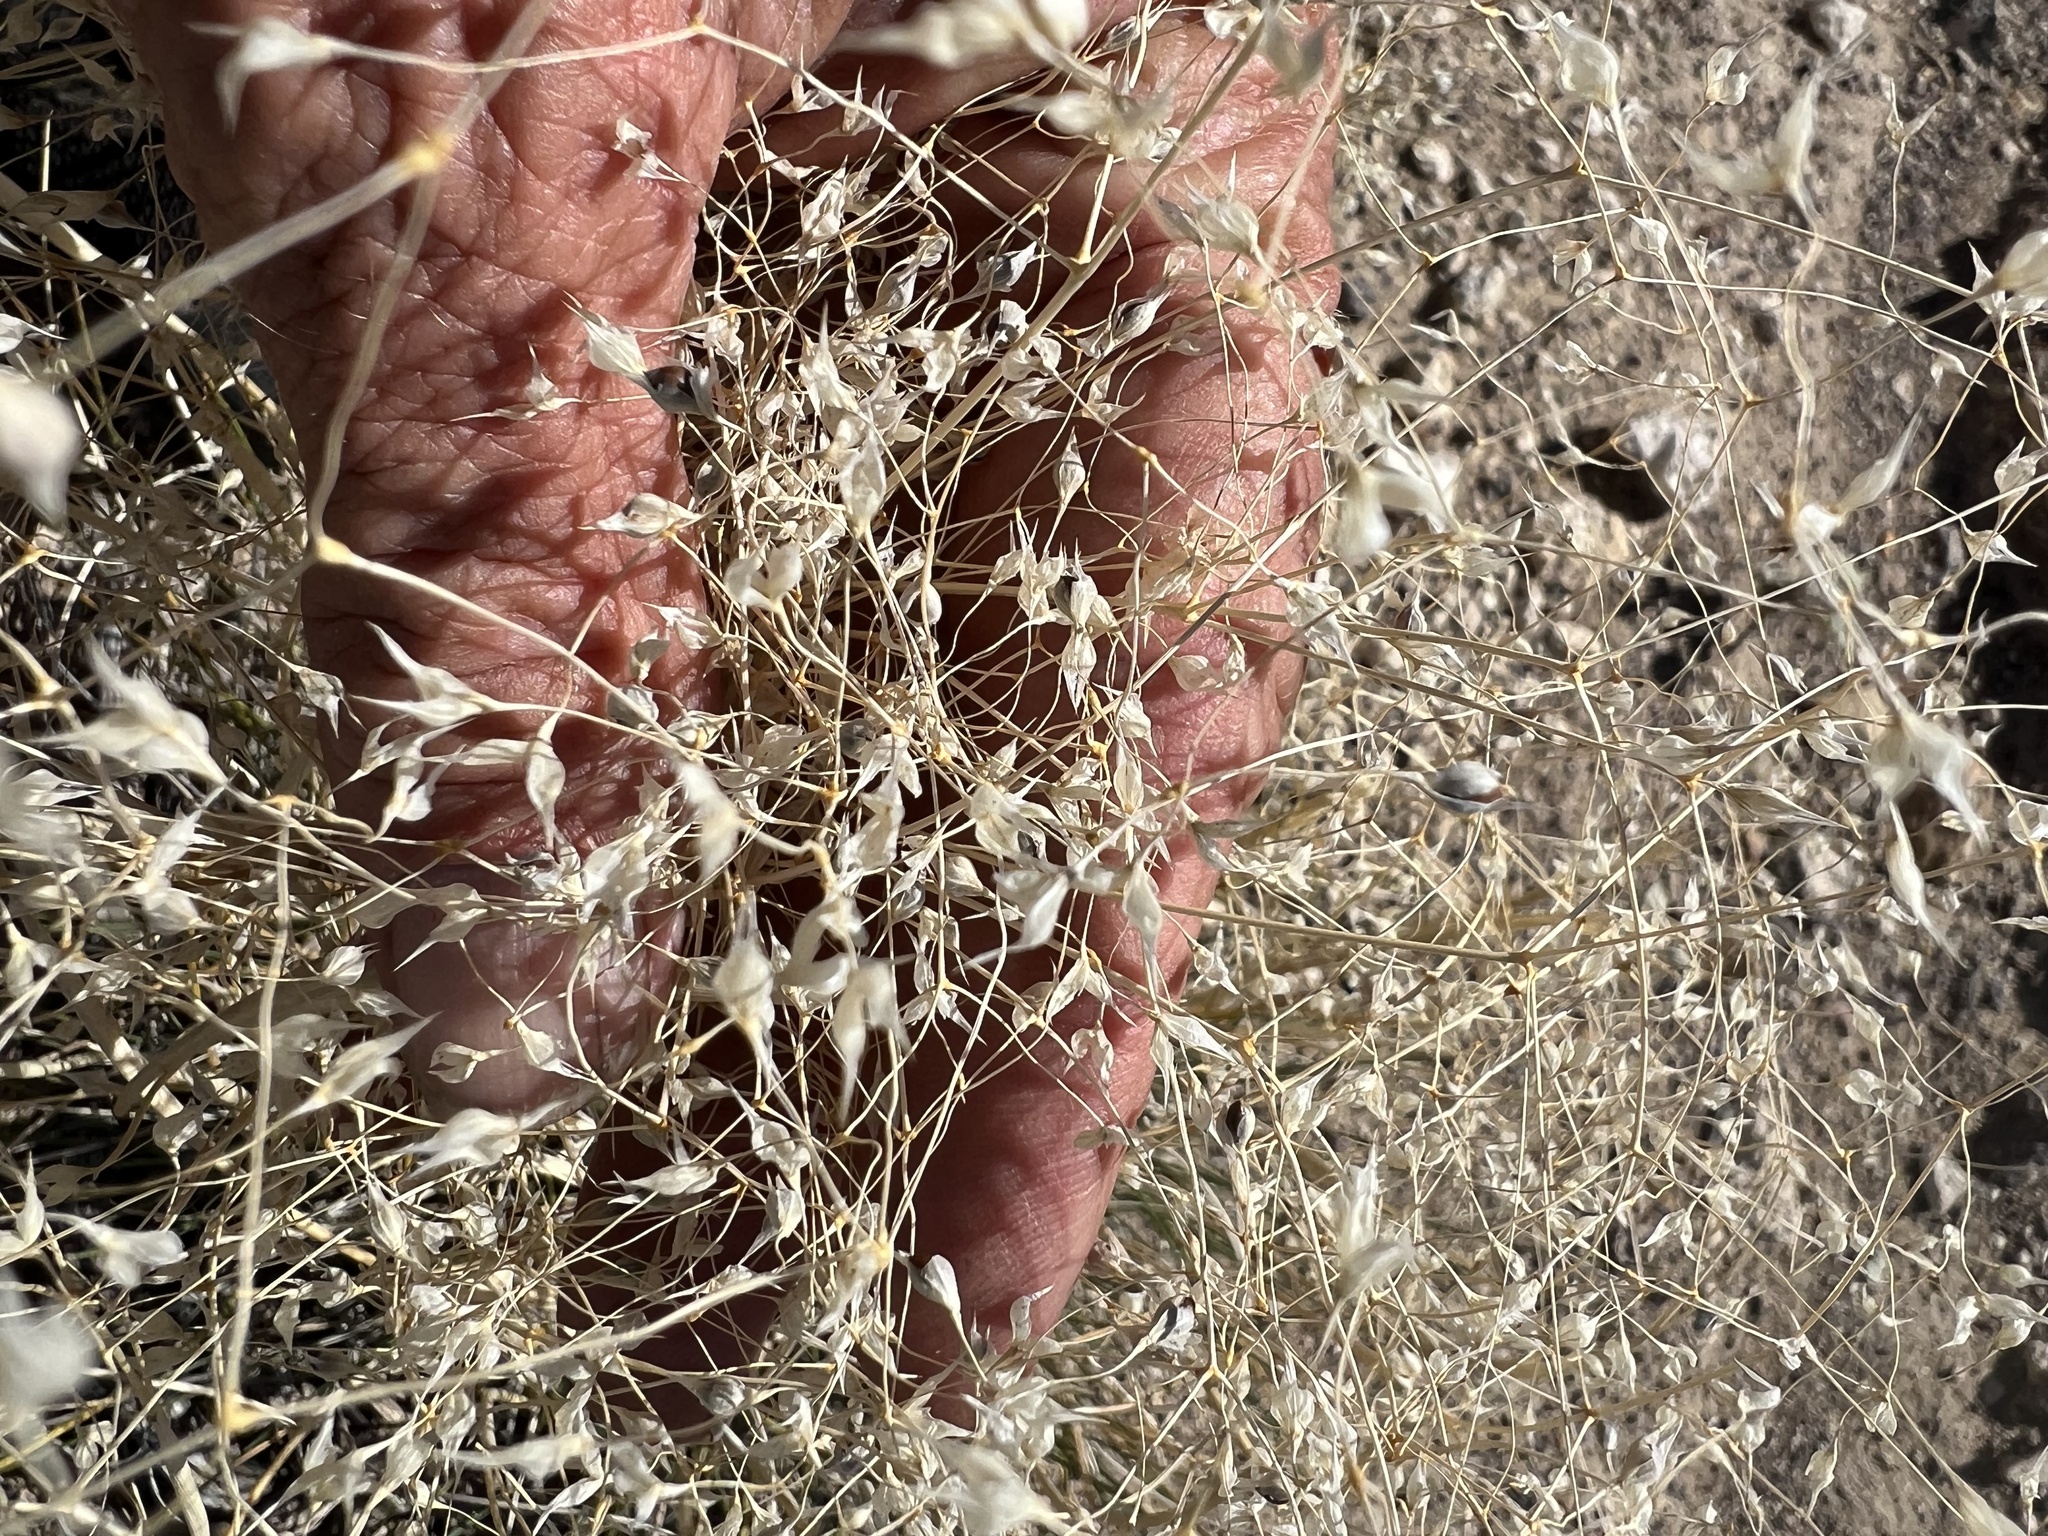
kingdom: Plantae
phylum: Tracheophyta
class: Liliopsida
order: Poales
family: Poaceae
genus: Eriocoma
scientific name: Eriocoma hymenoides
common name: Indian mountain ricegrass
